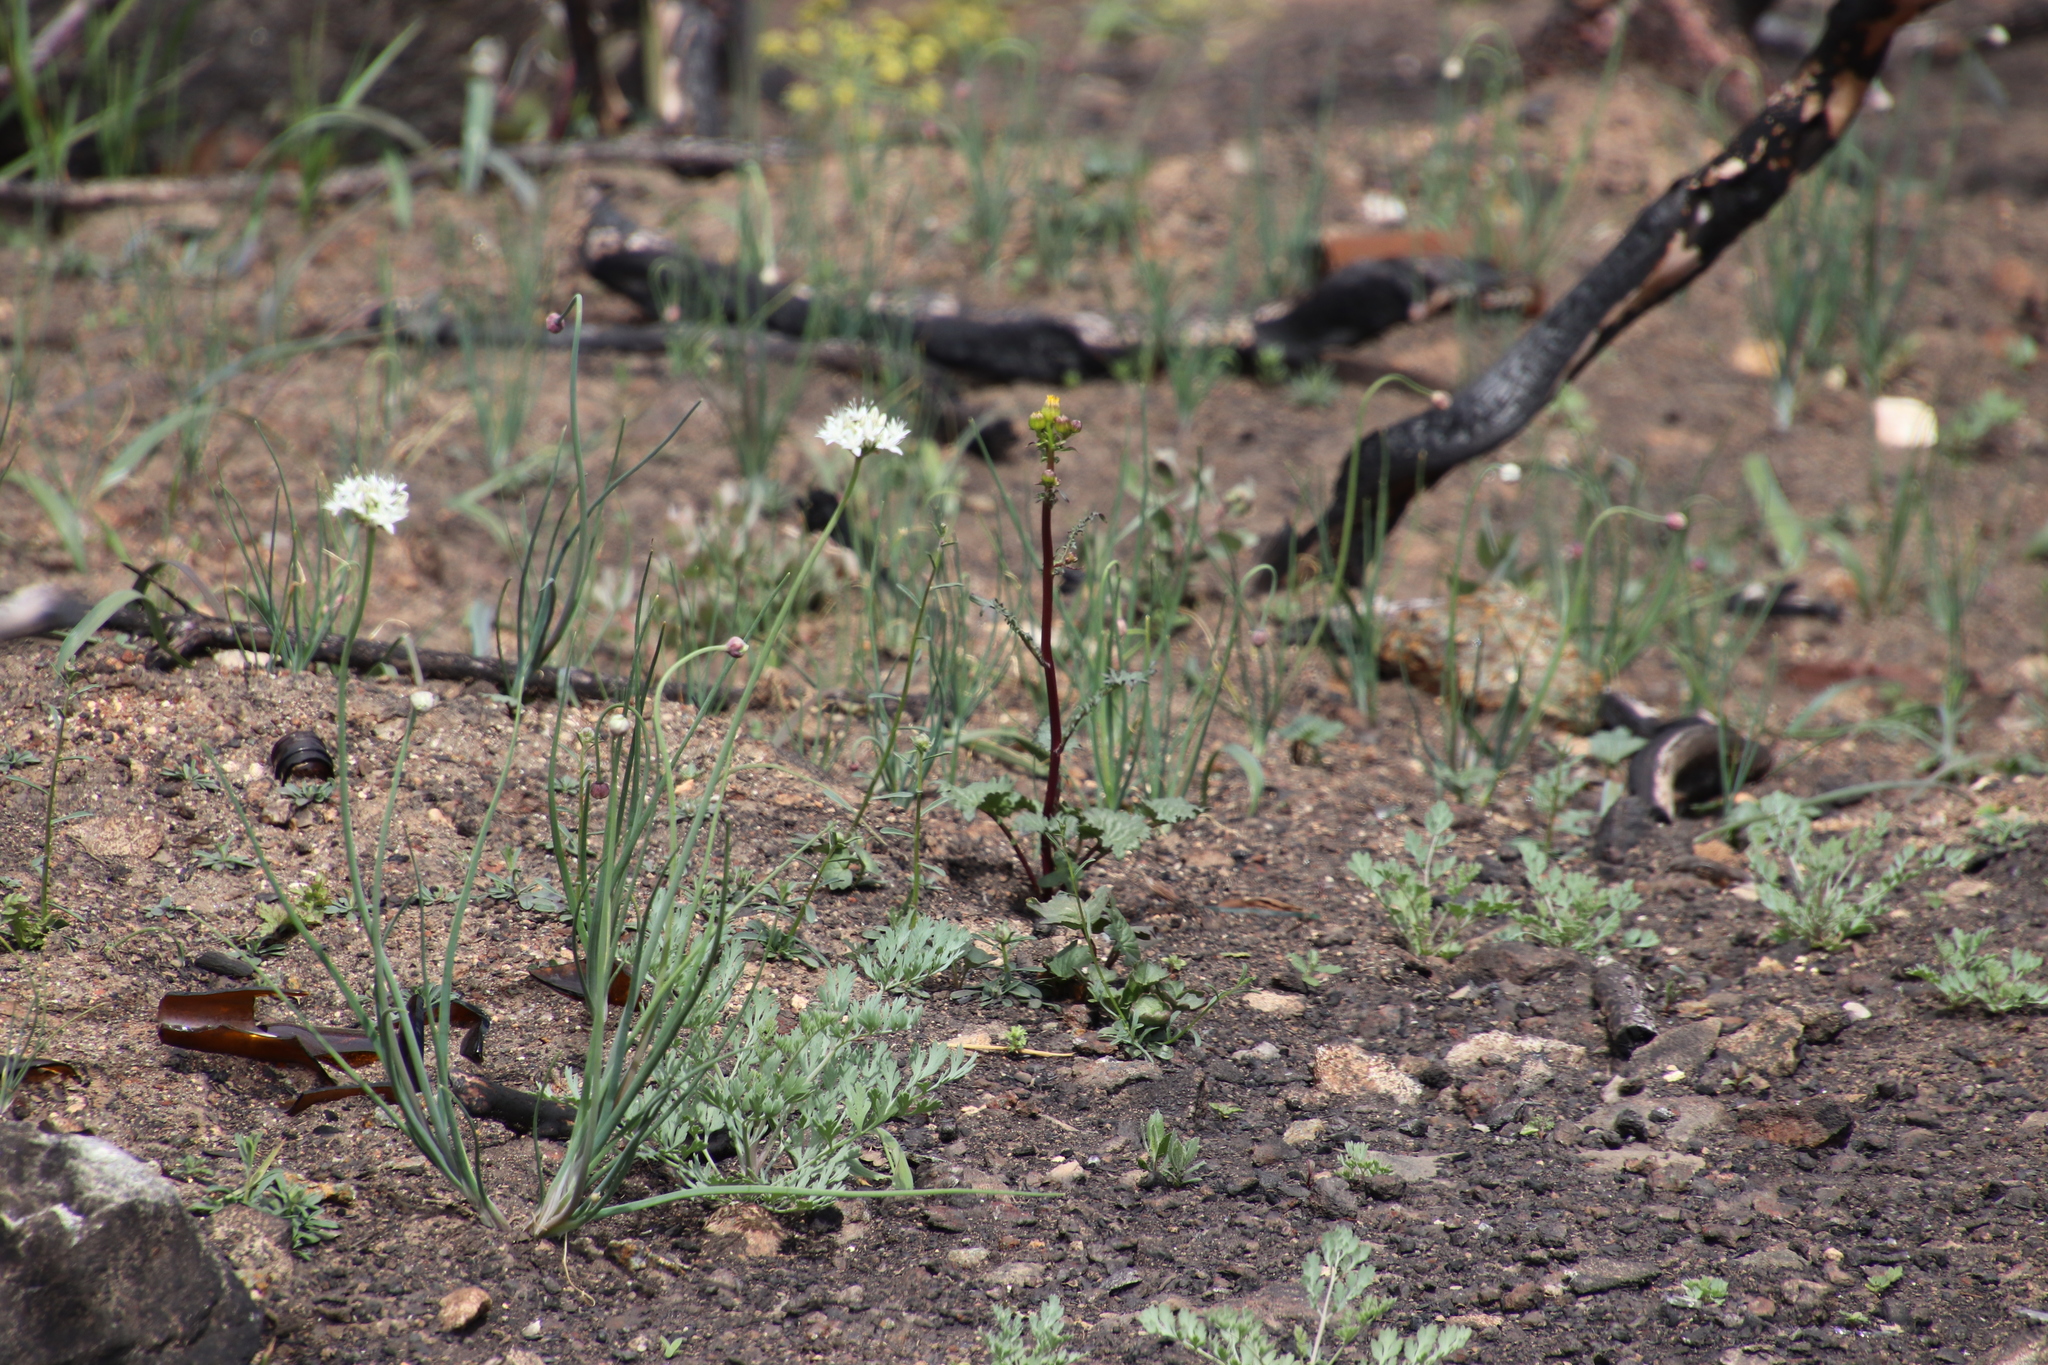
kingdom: Plantae
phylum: Tracheophyta
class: Magnoliopsida
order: Asterales
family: Asteraceae
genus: Packera
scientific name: Packera ganderi
